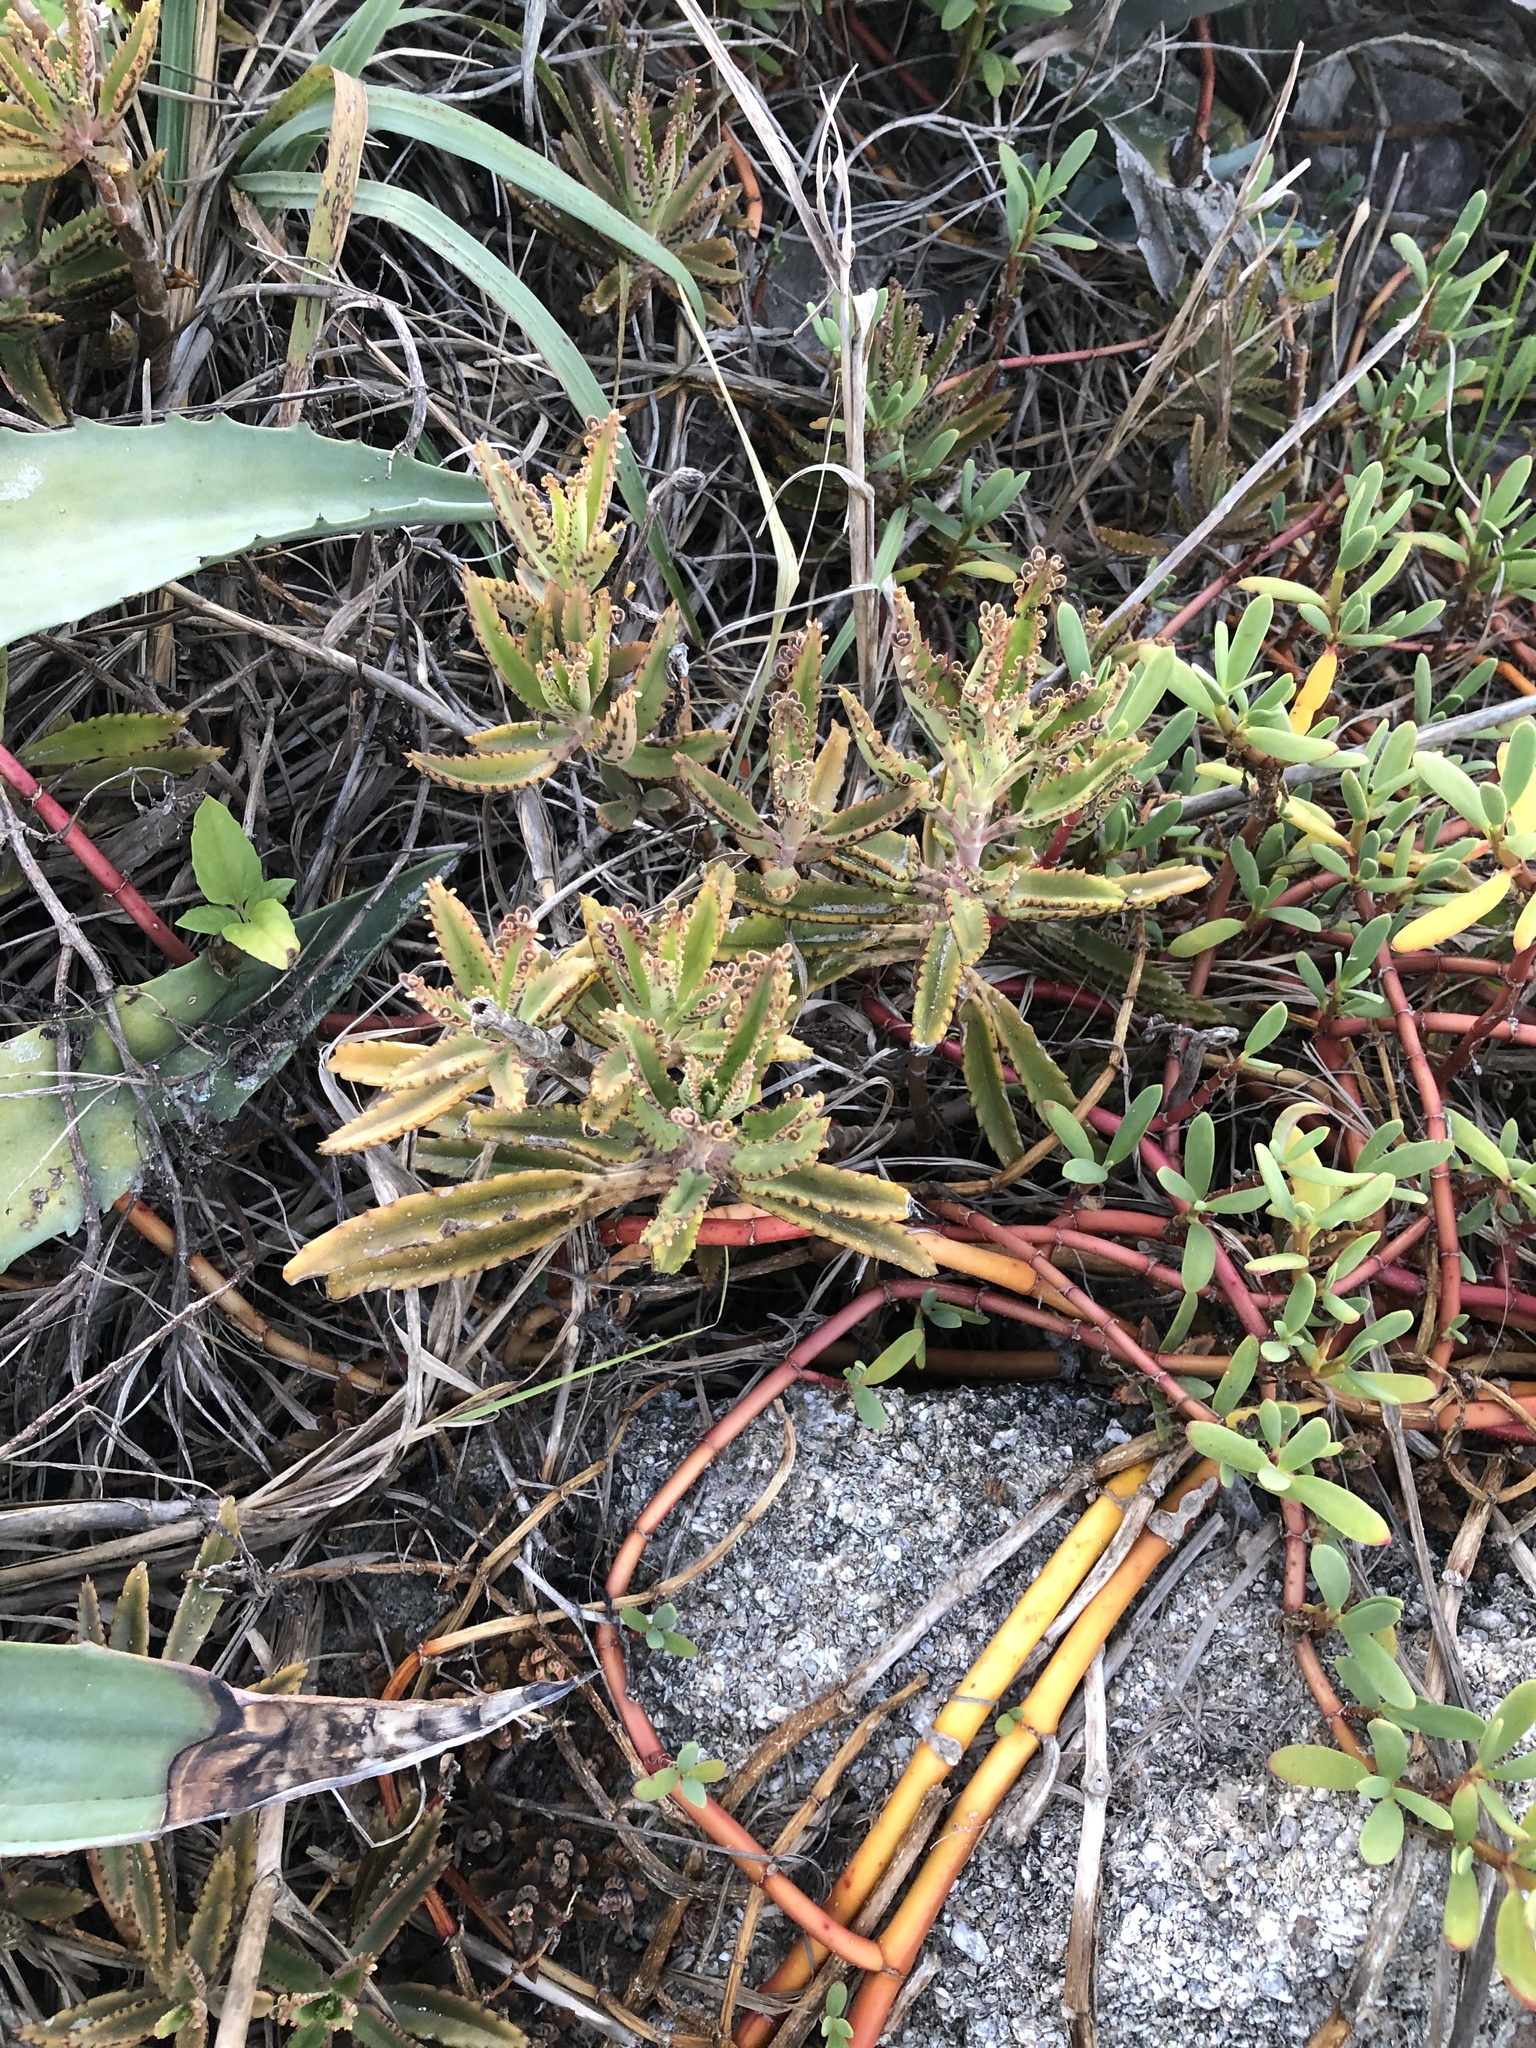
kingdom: Plantae
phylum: Tracheophyta
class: Magnoliopsida
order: Saxifragales
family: Crassulaceae
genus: Kalanchoe
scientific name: Kalanchoe houghtonii
